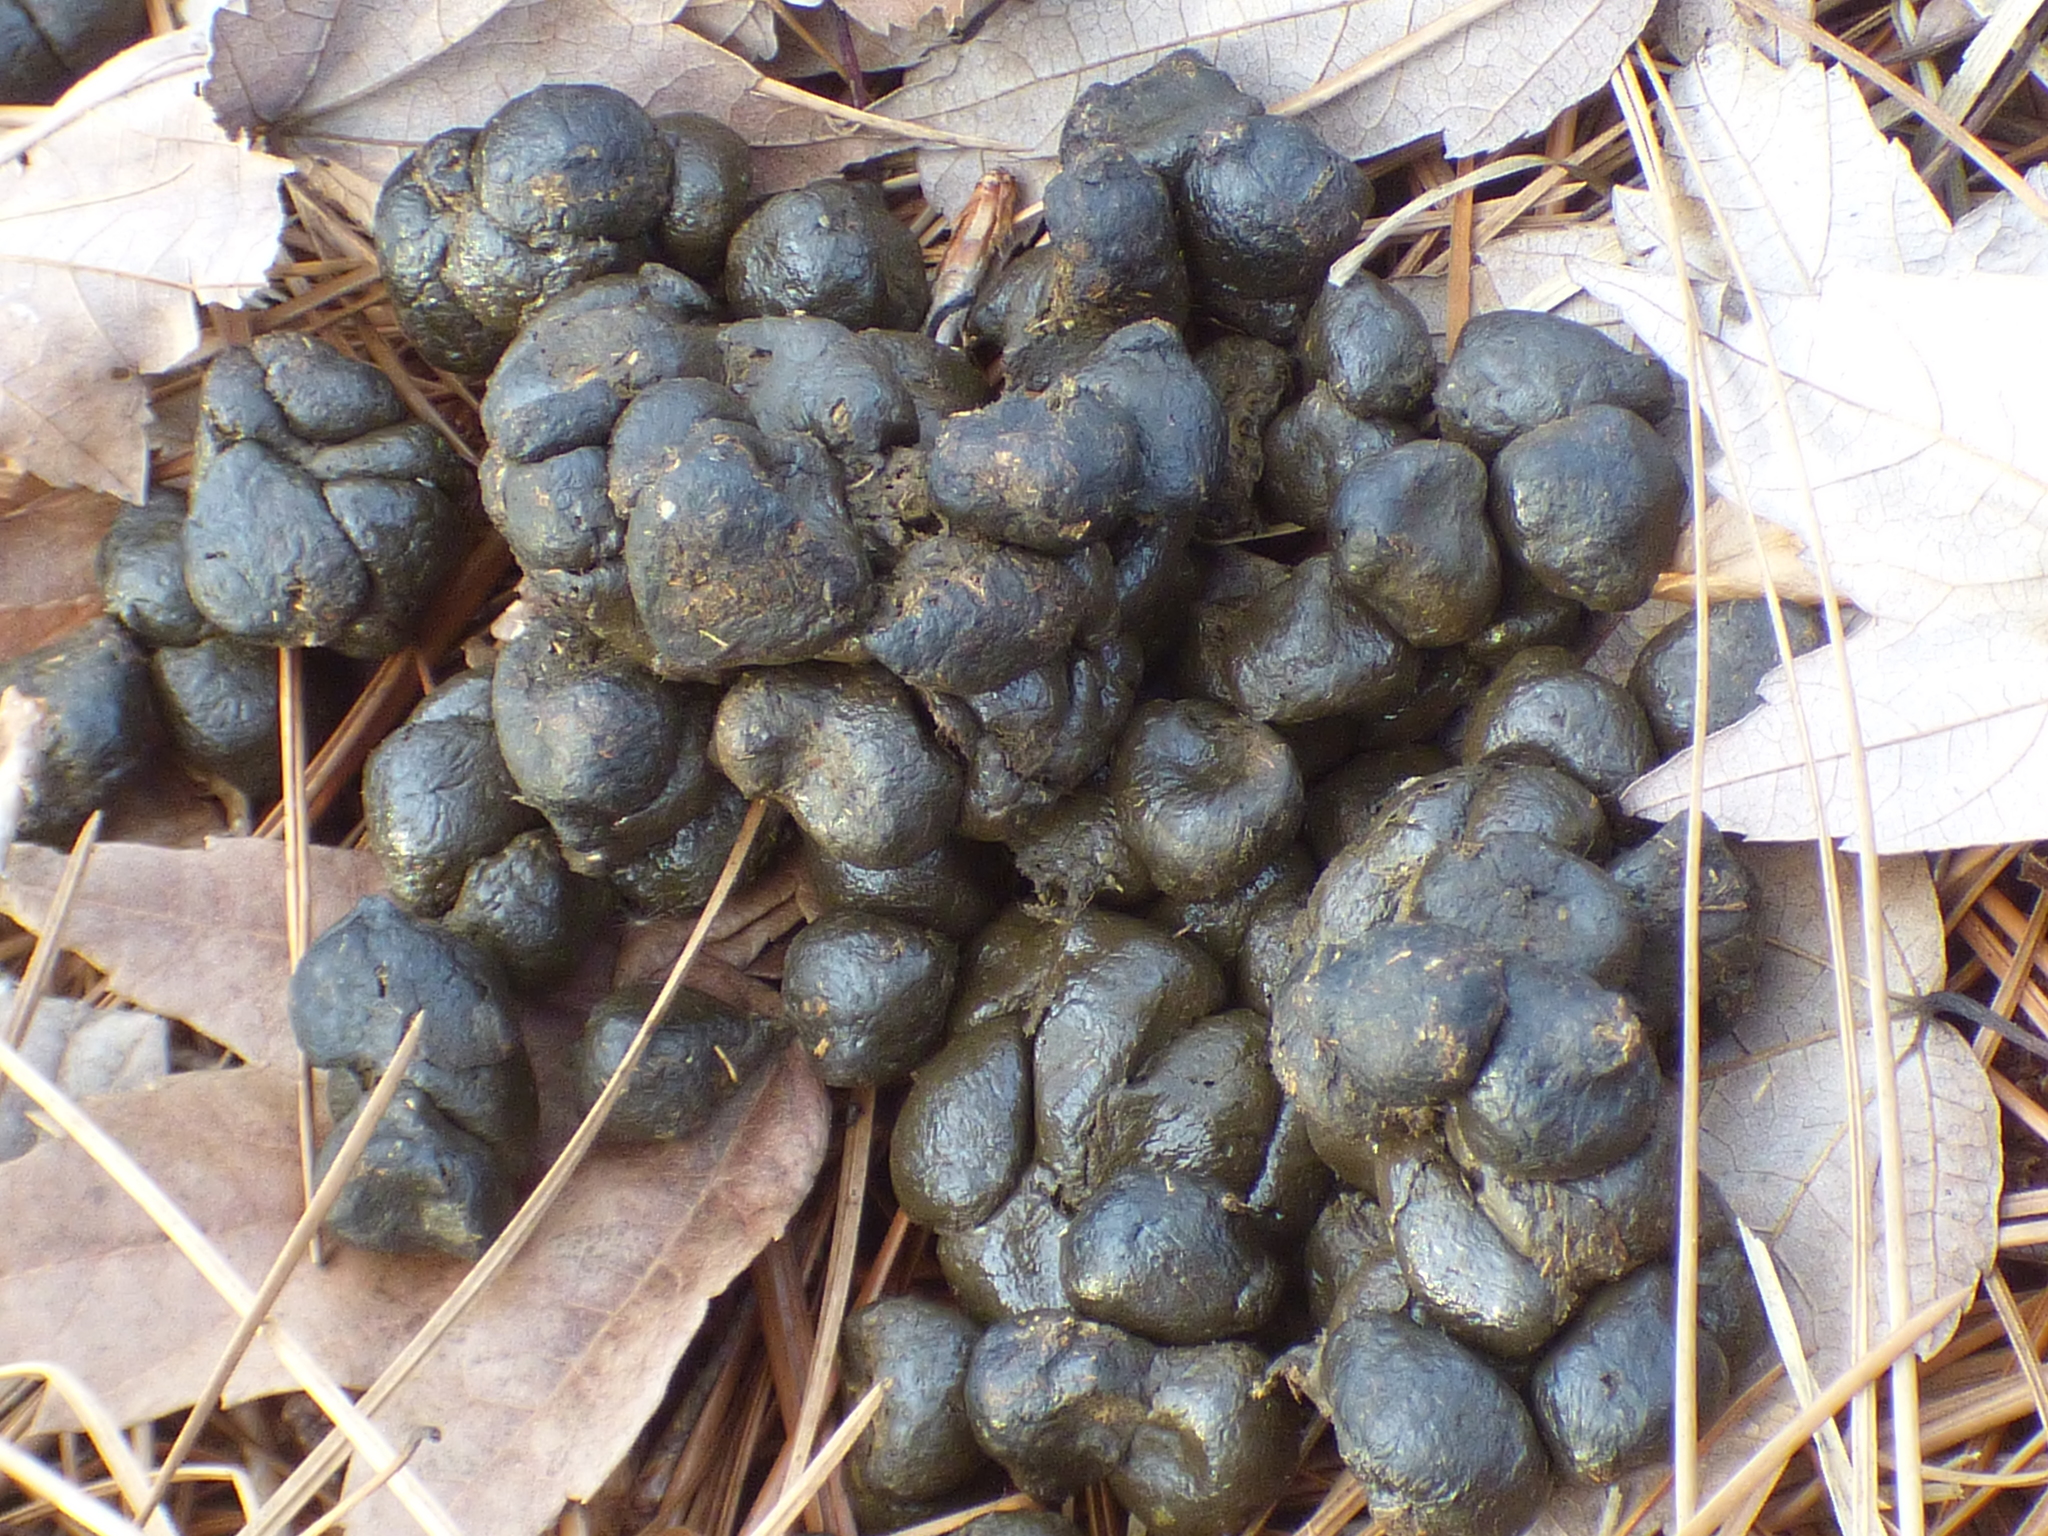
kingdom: Animalia
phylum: Chordata
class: Mammalia
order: Artiodactyla
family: Cervidae
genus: Odocoileus
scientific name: Odocoileus virginianus
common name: White-tailed deer
